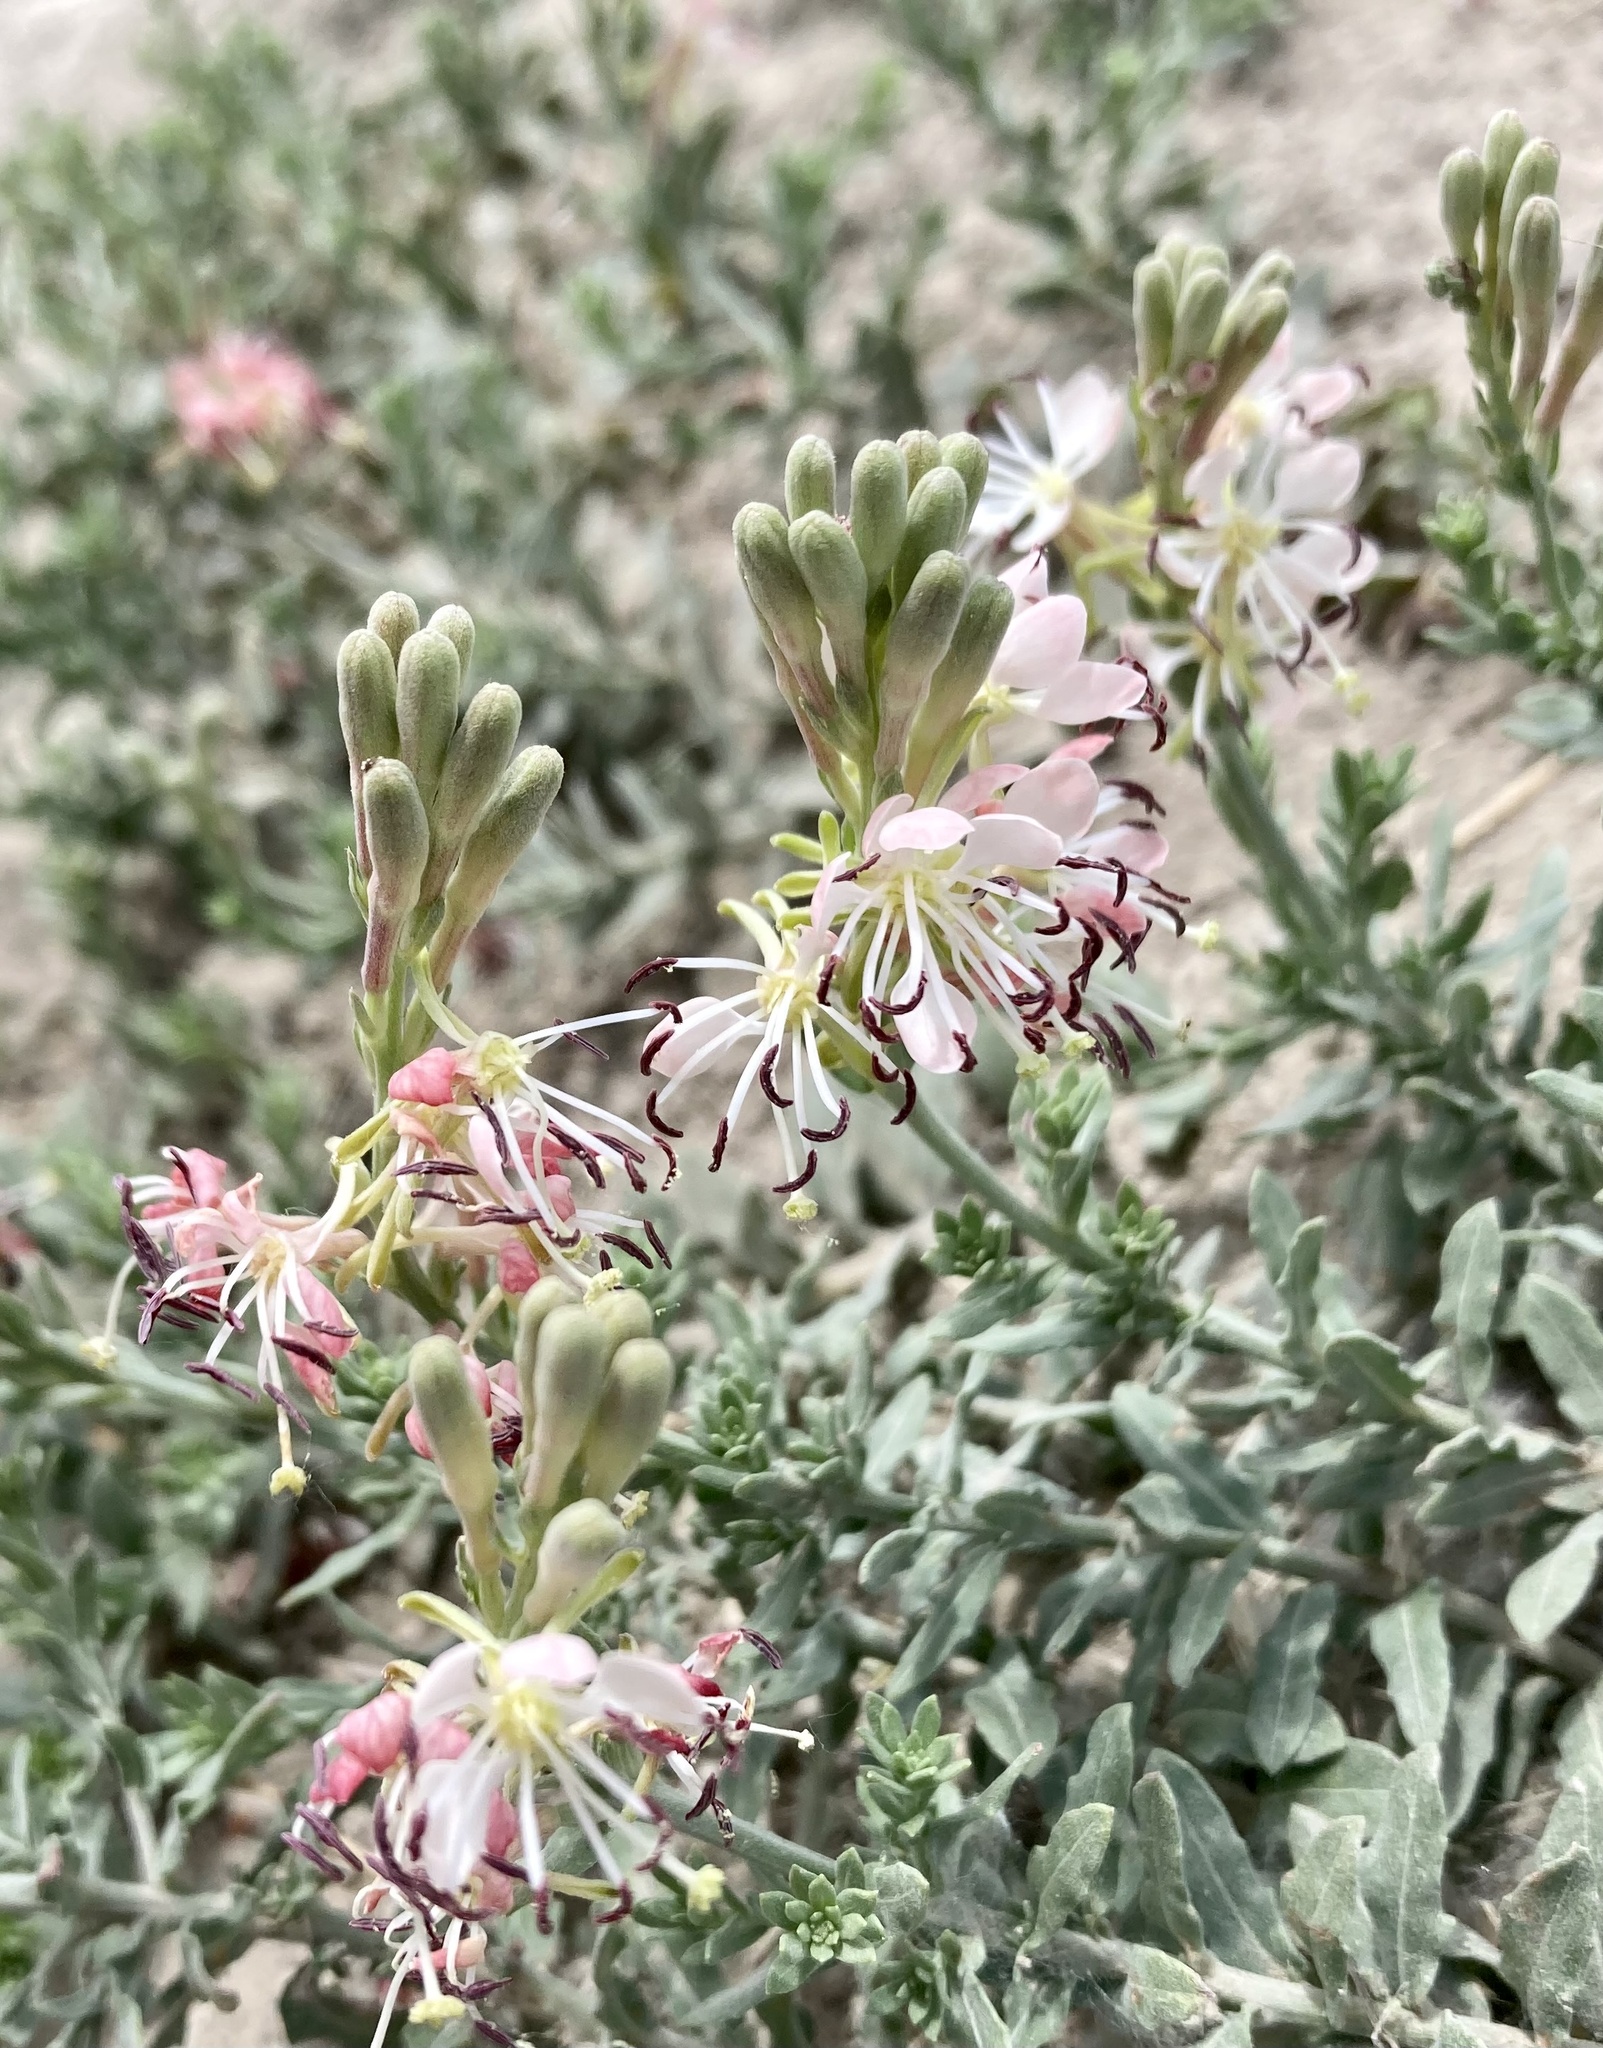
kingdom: Plantae
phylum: Tracheophyta
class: Magnoliopsida
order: Myrtales
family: Onagraceae
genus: Oenothera
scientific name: Oenothera suffrutescens
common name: Scarlet beeblossom
